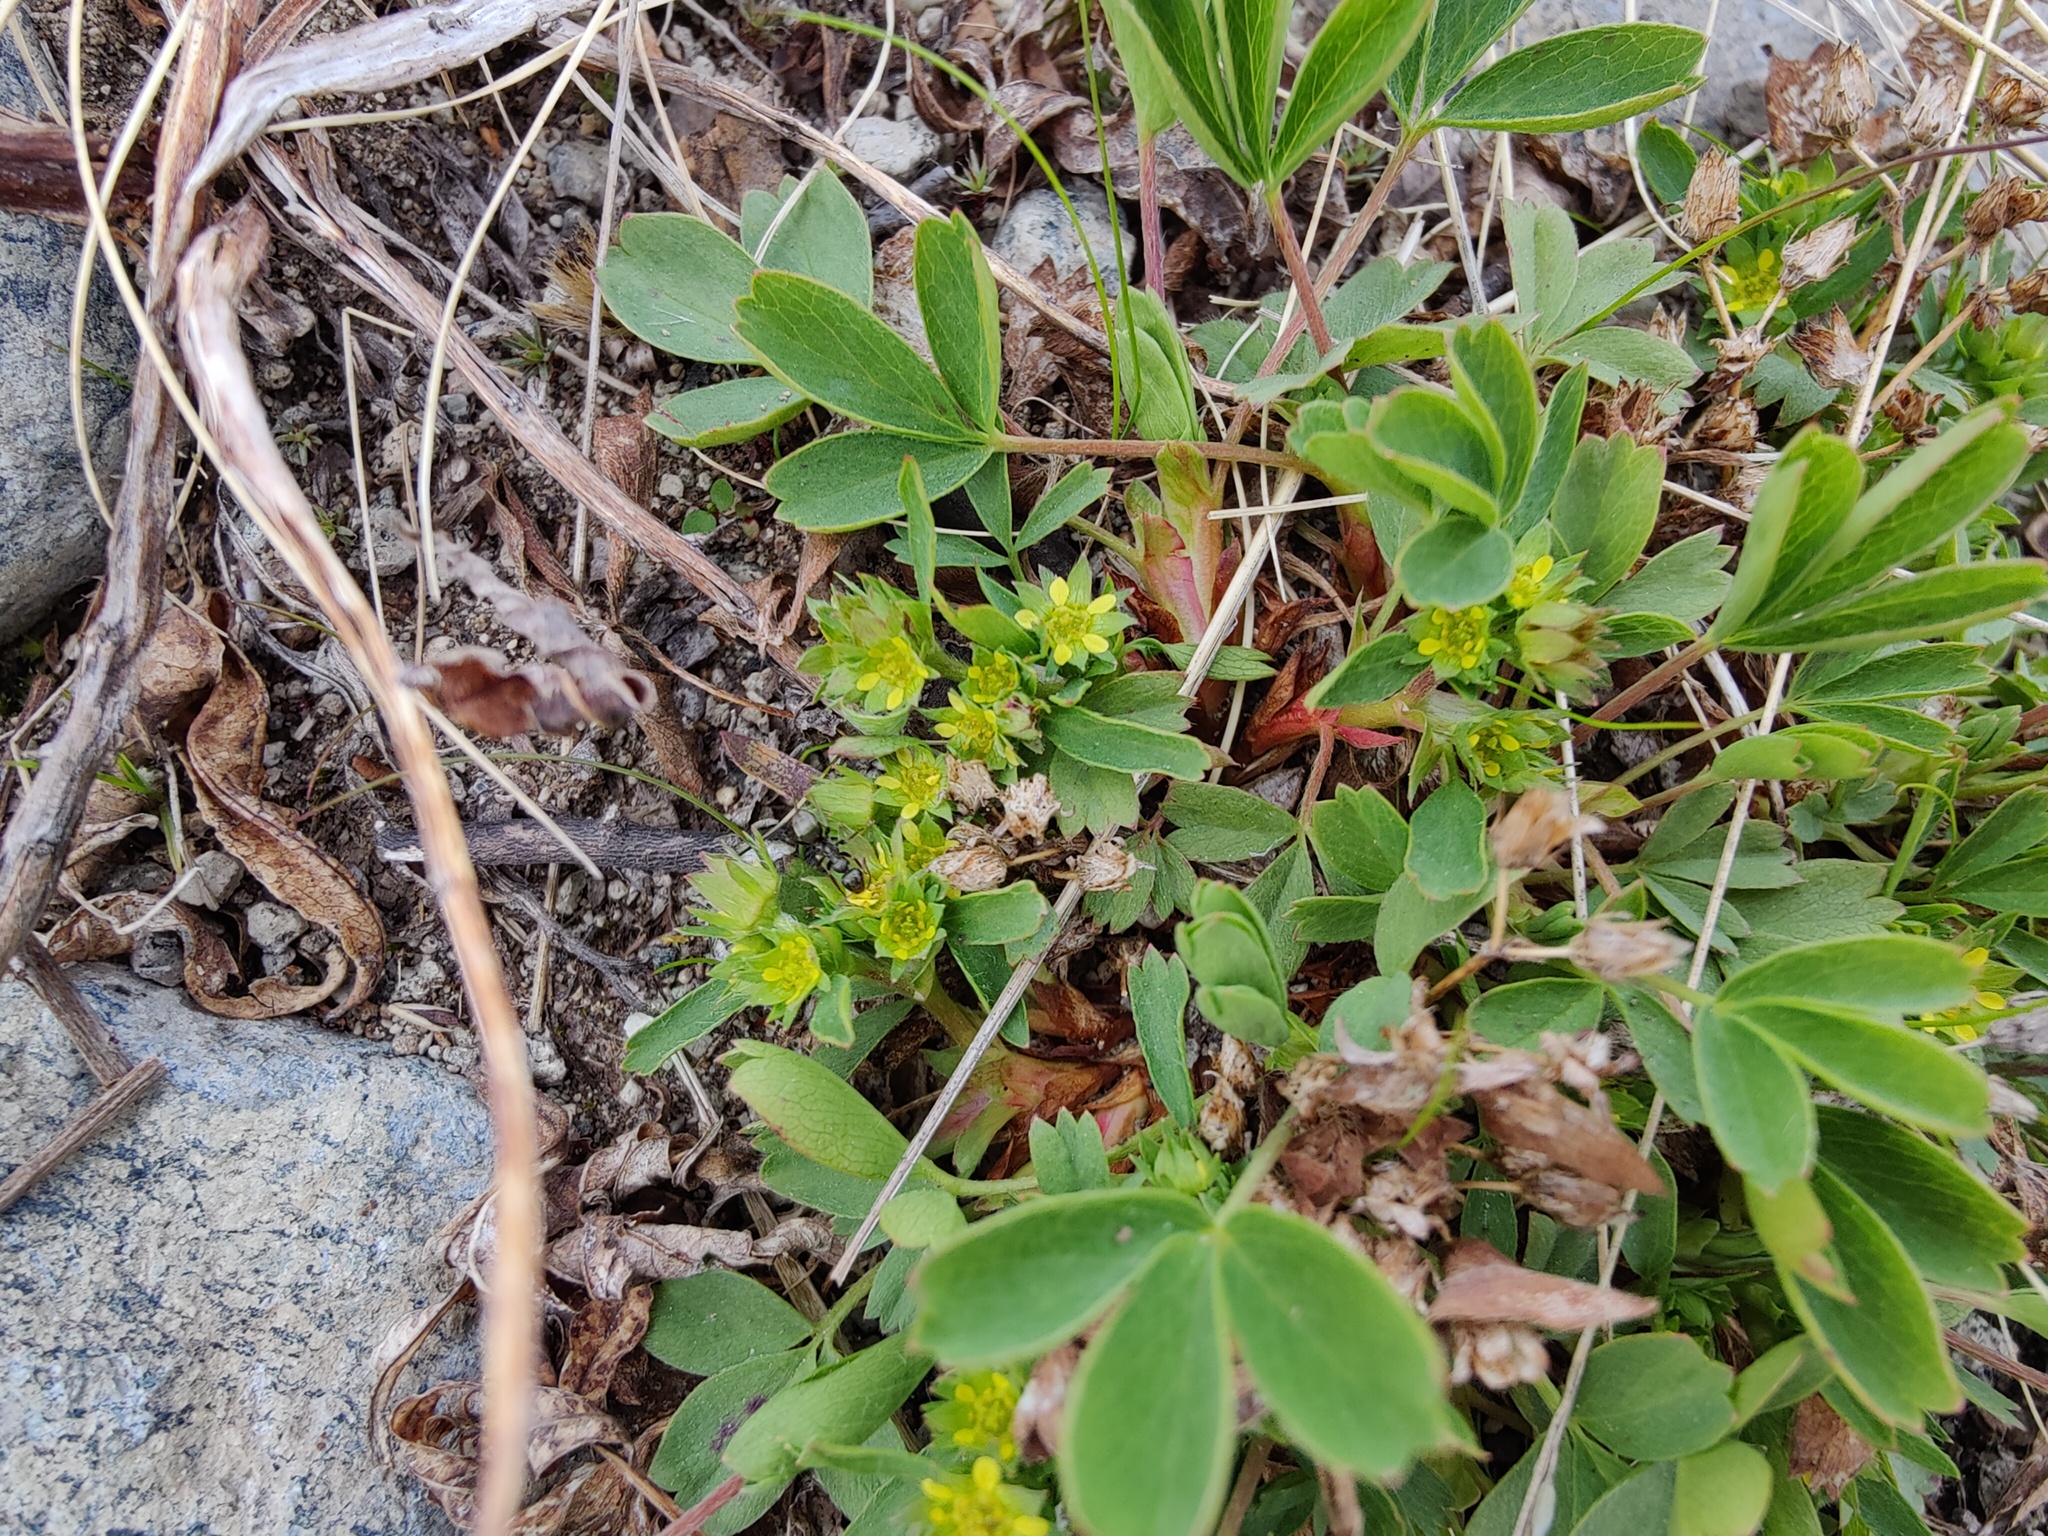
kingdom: Plantae
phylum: Tracheophyta
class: Magnoliopsida
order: Rosales
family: Rosaceae
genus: Sibbaldia
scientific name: Sibbaldia procumbens
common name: Creeping sibbaldia
